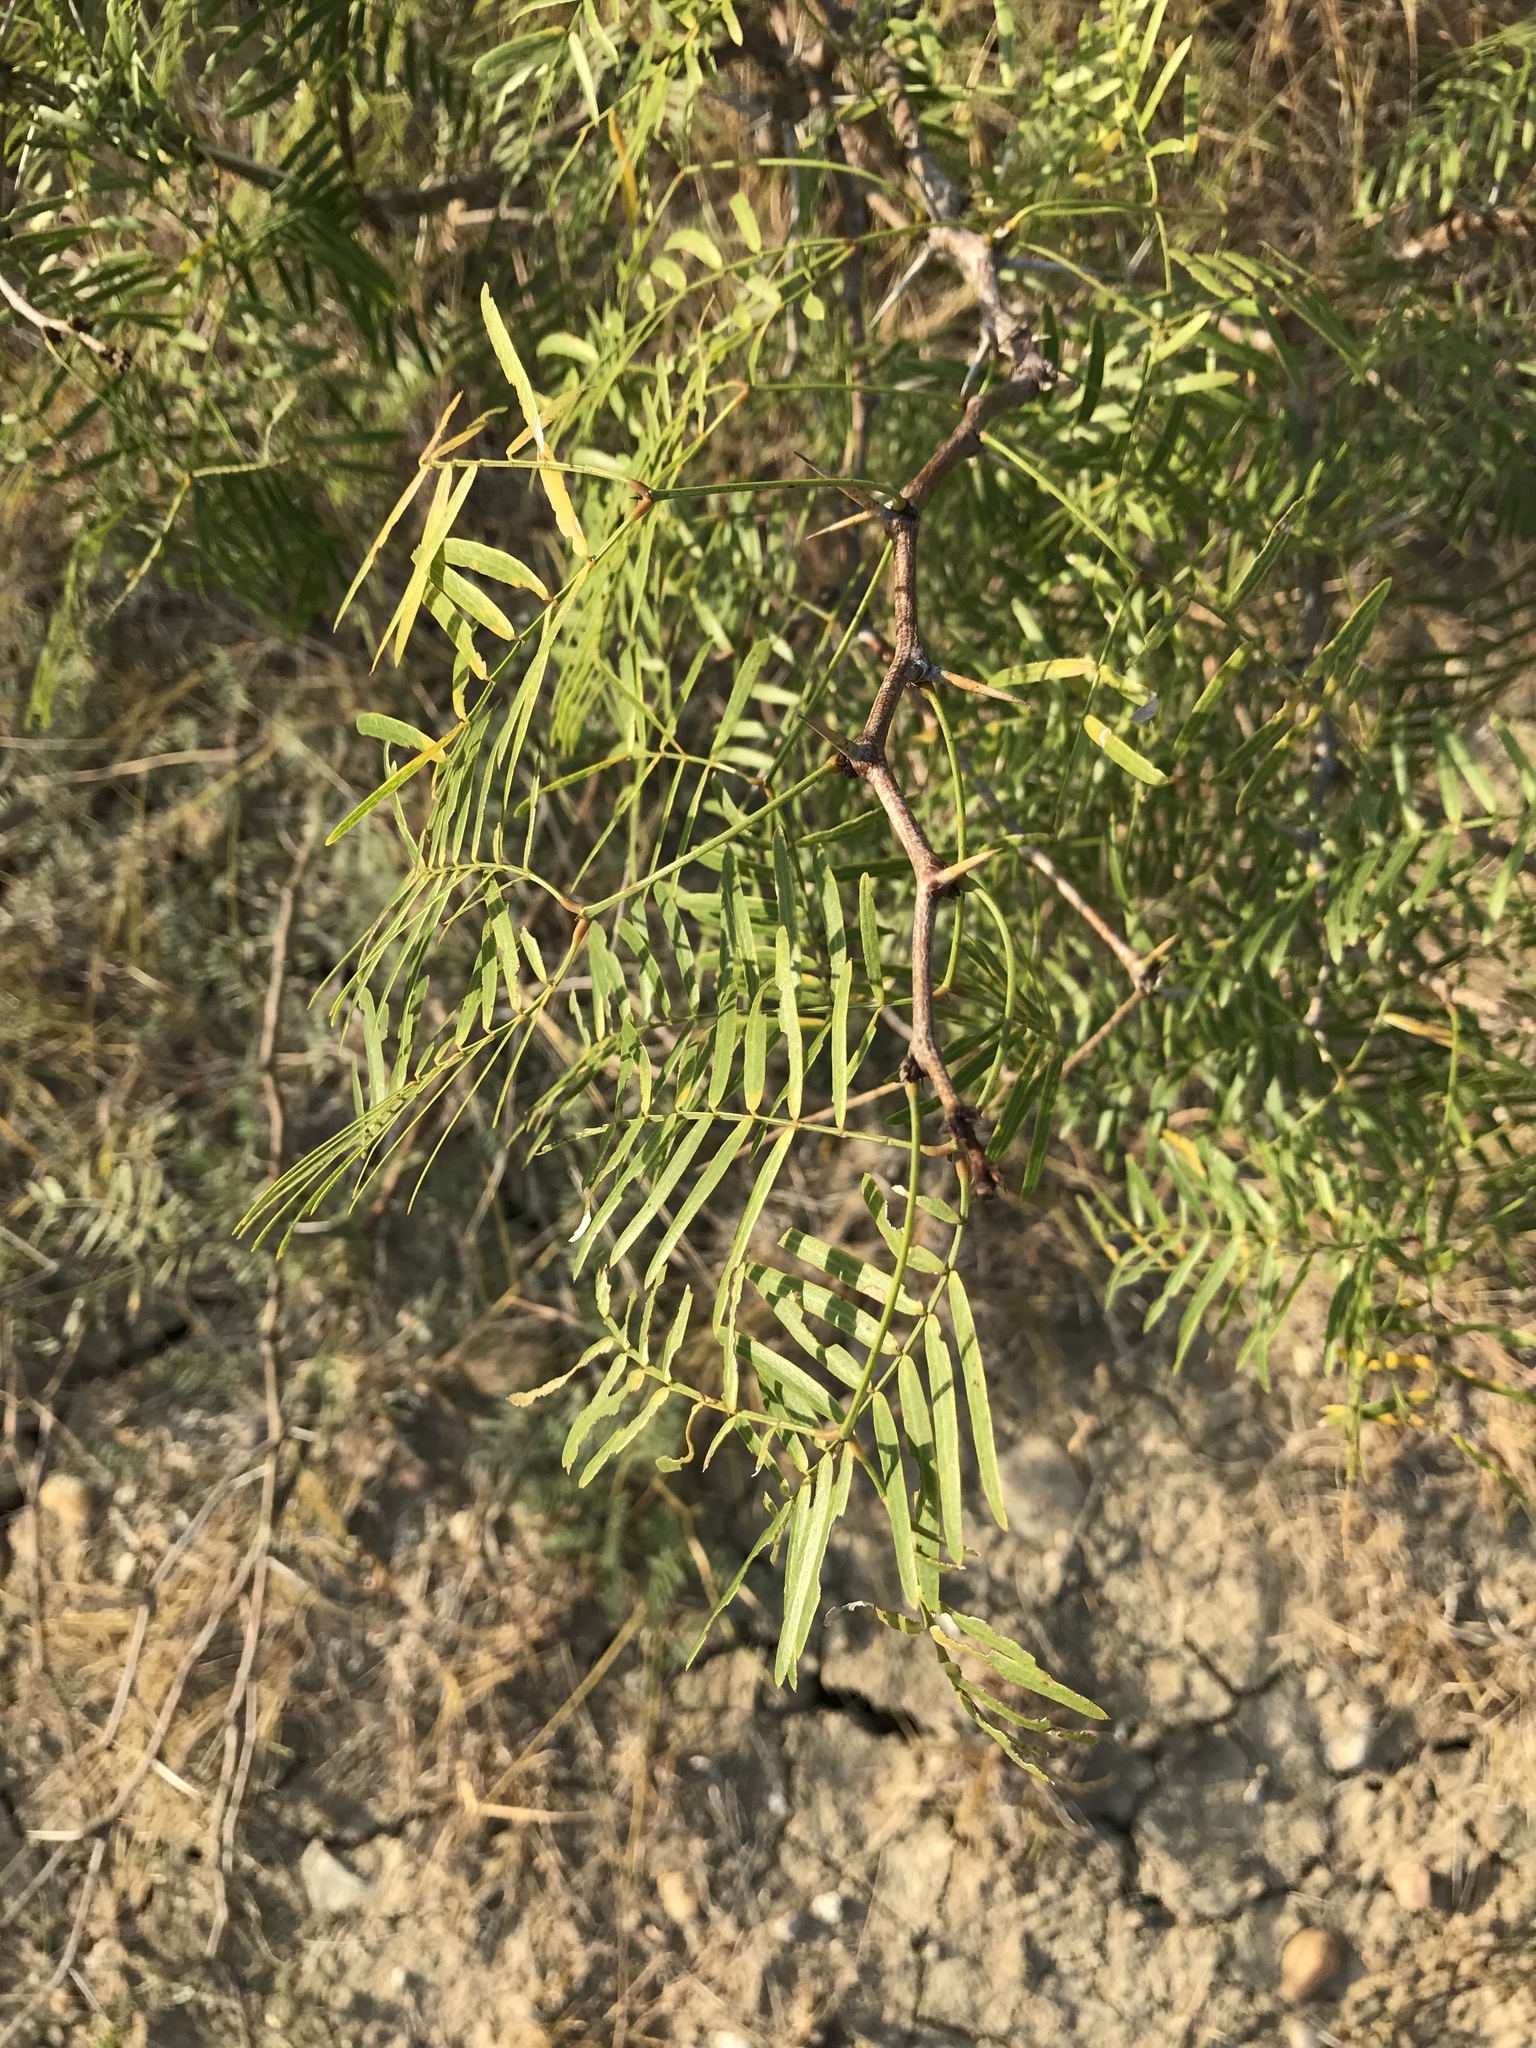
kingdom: Plantae
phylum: Tracheophyta
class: Magnoliopsida
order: Fabales
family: Fabaceae
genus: Prosopis
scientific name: Prosopis glandulosa
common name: Honey mesquite
